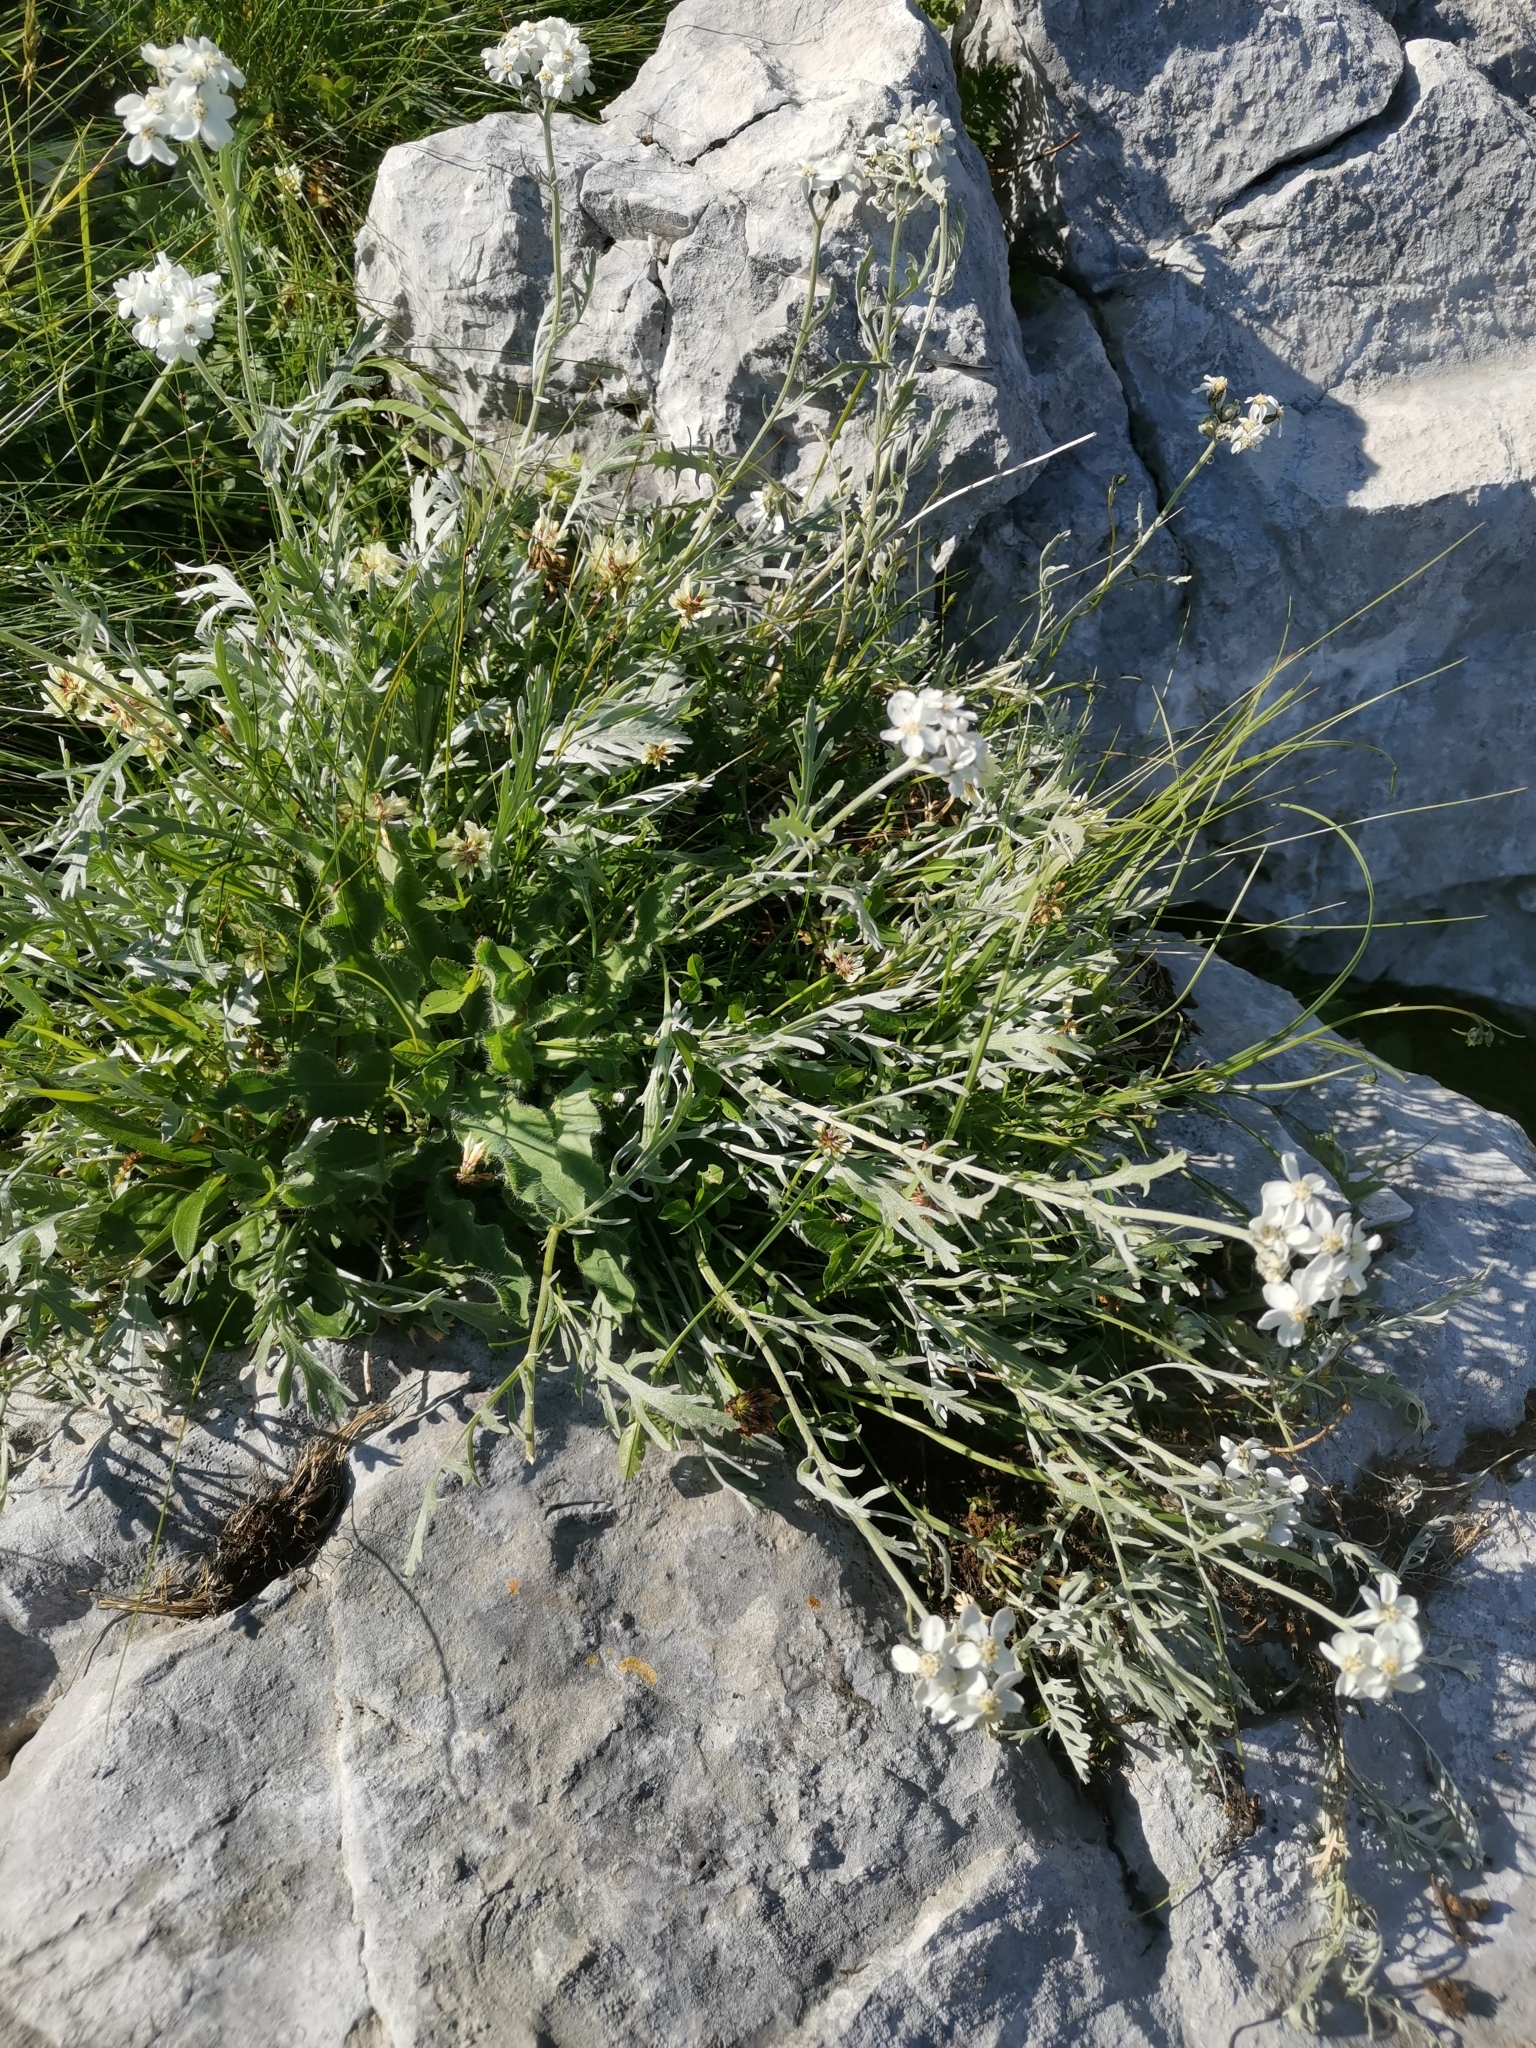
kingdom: Plantae
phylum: Tracheophyta
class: Magnoliopsida
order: Asterales
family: Asteraceae
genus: Achillea
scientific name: Achillea clavennae
